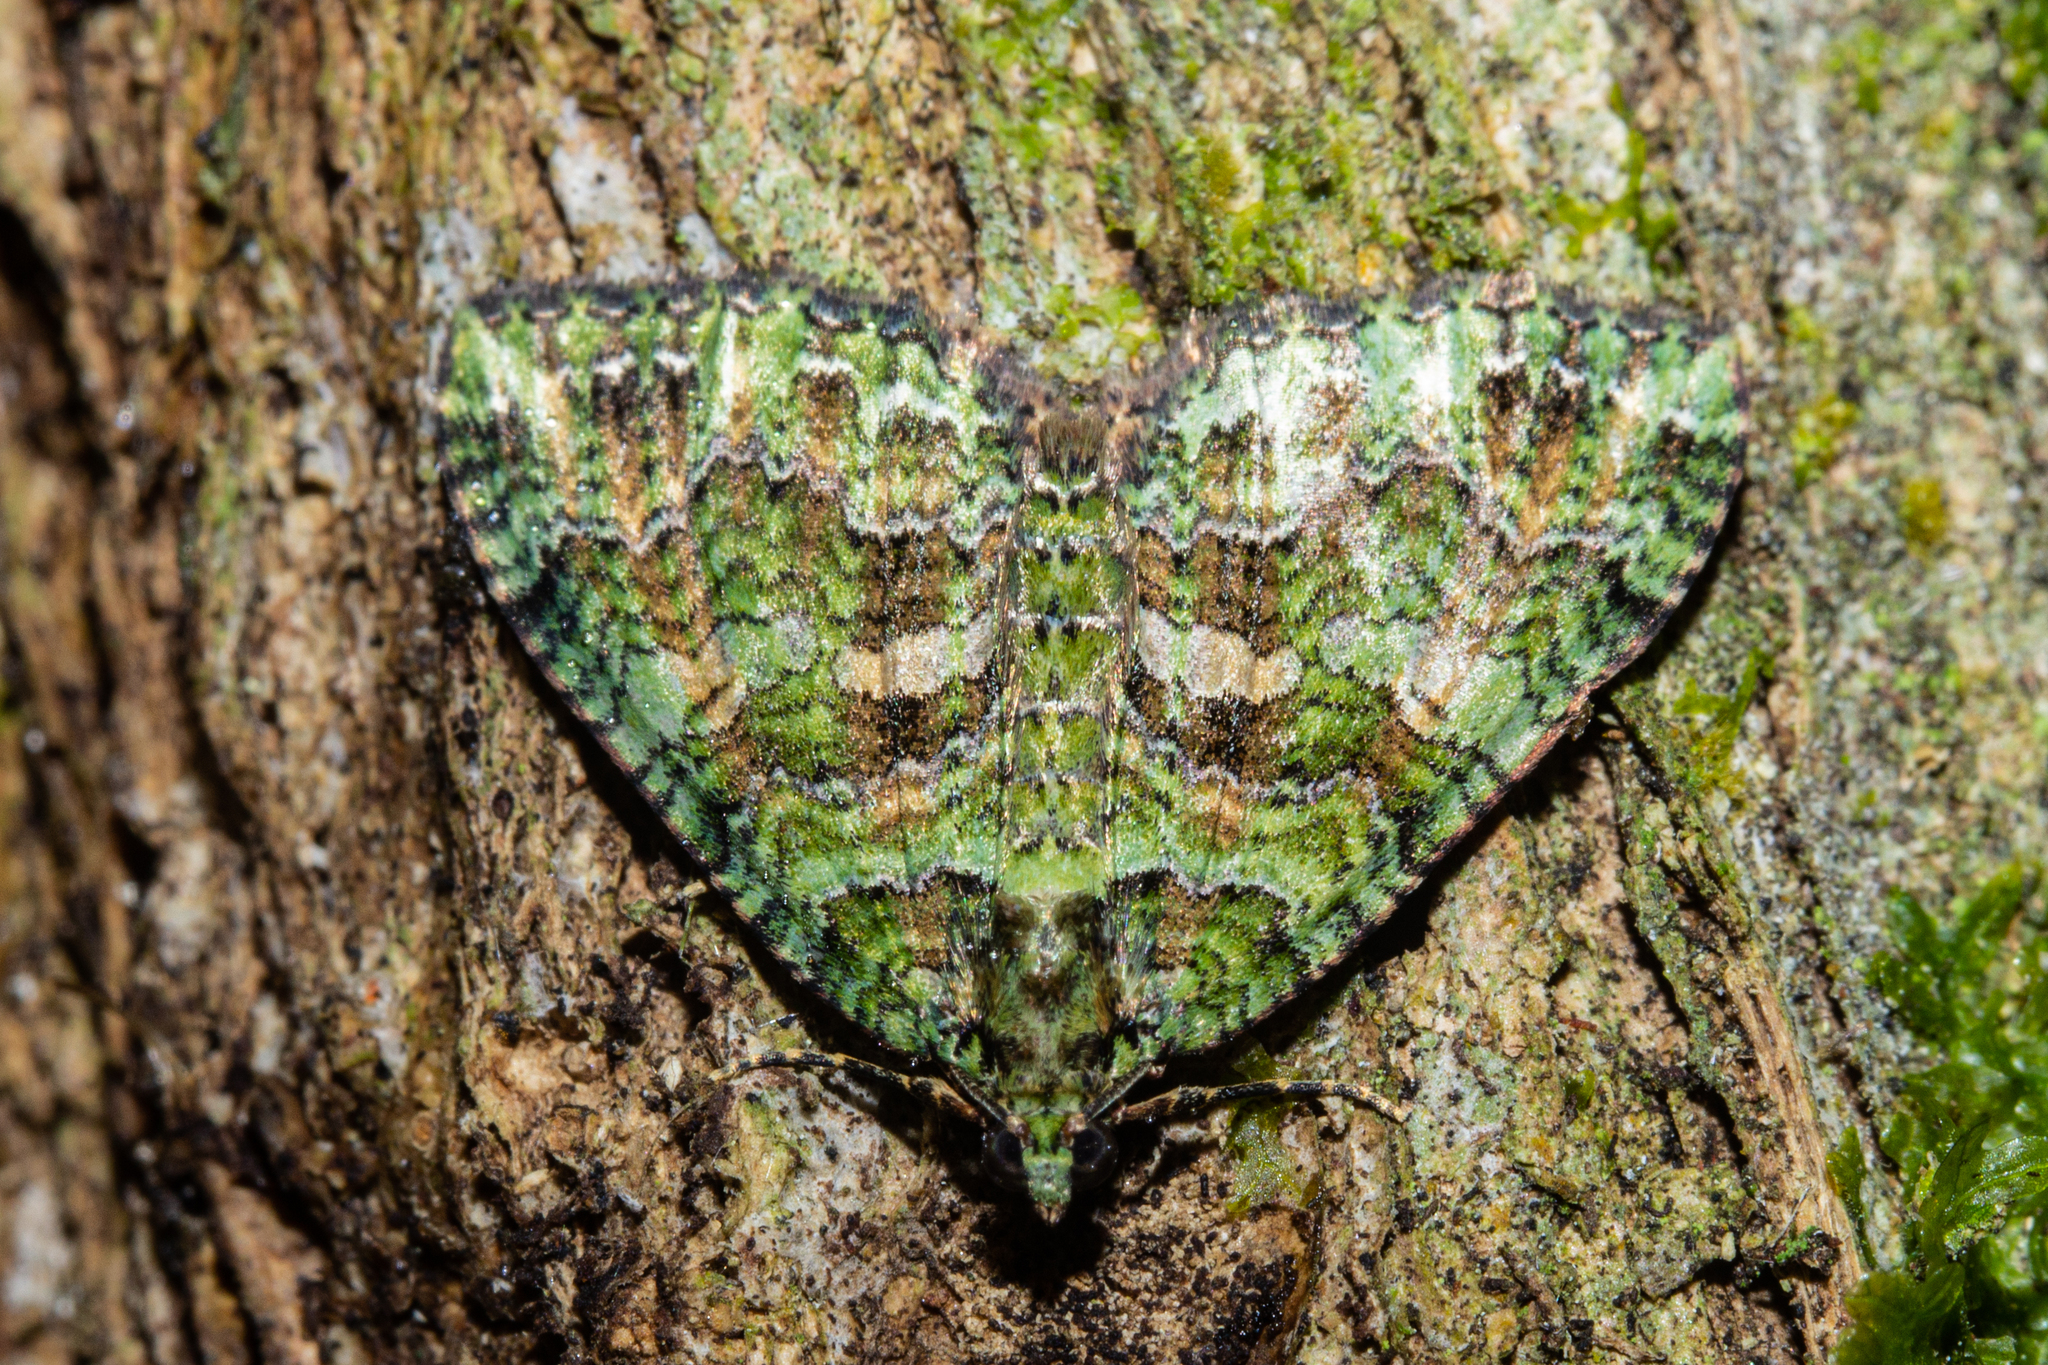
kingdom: Animalia
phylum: Arthropoda
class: Insecta
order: Lepidoptera
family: Geometridae
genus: Austrocidaria
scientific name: Austrocidaria similata
